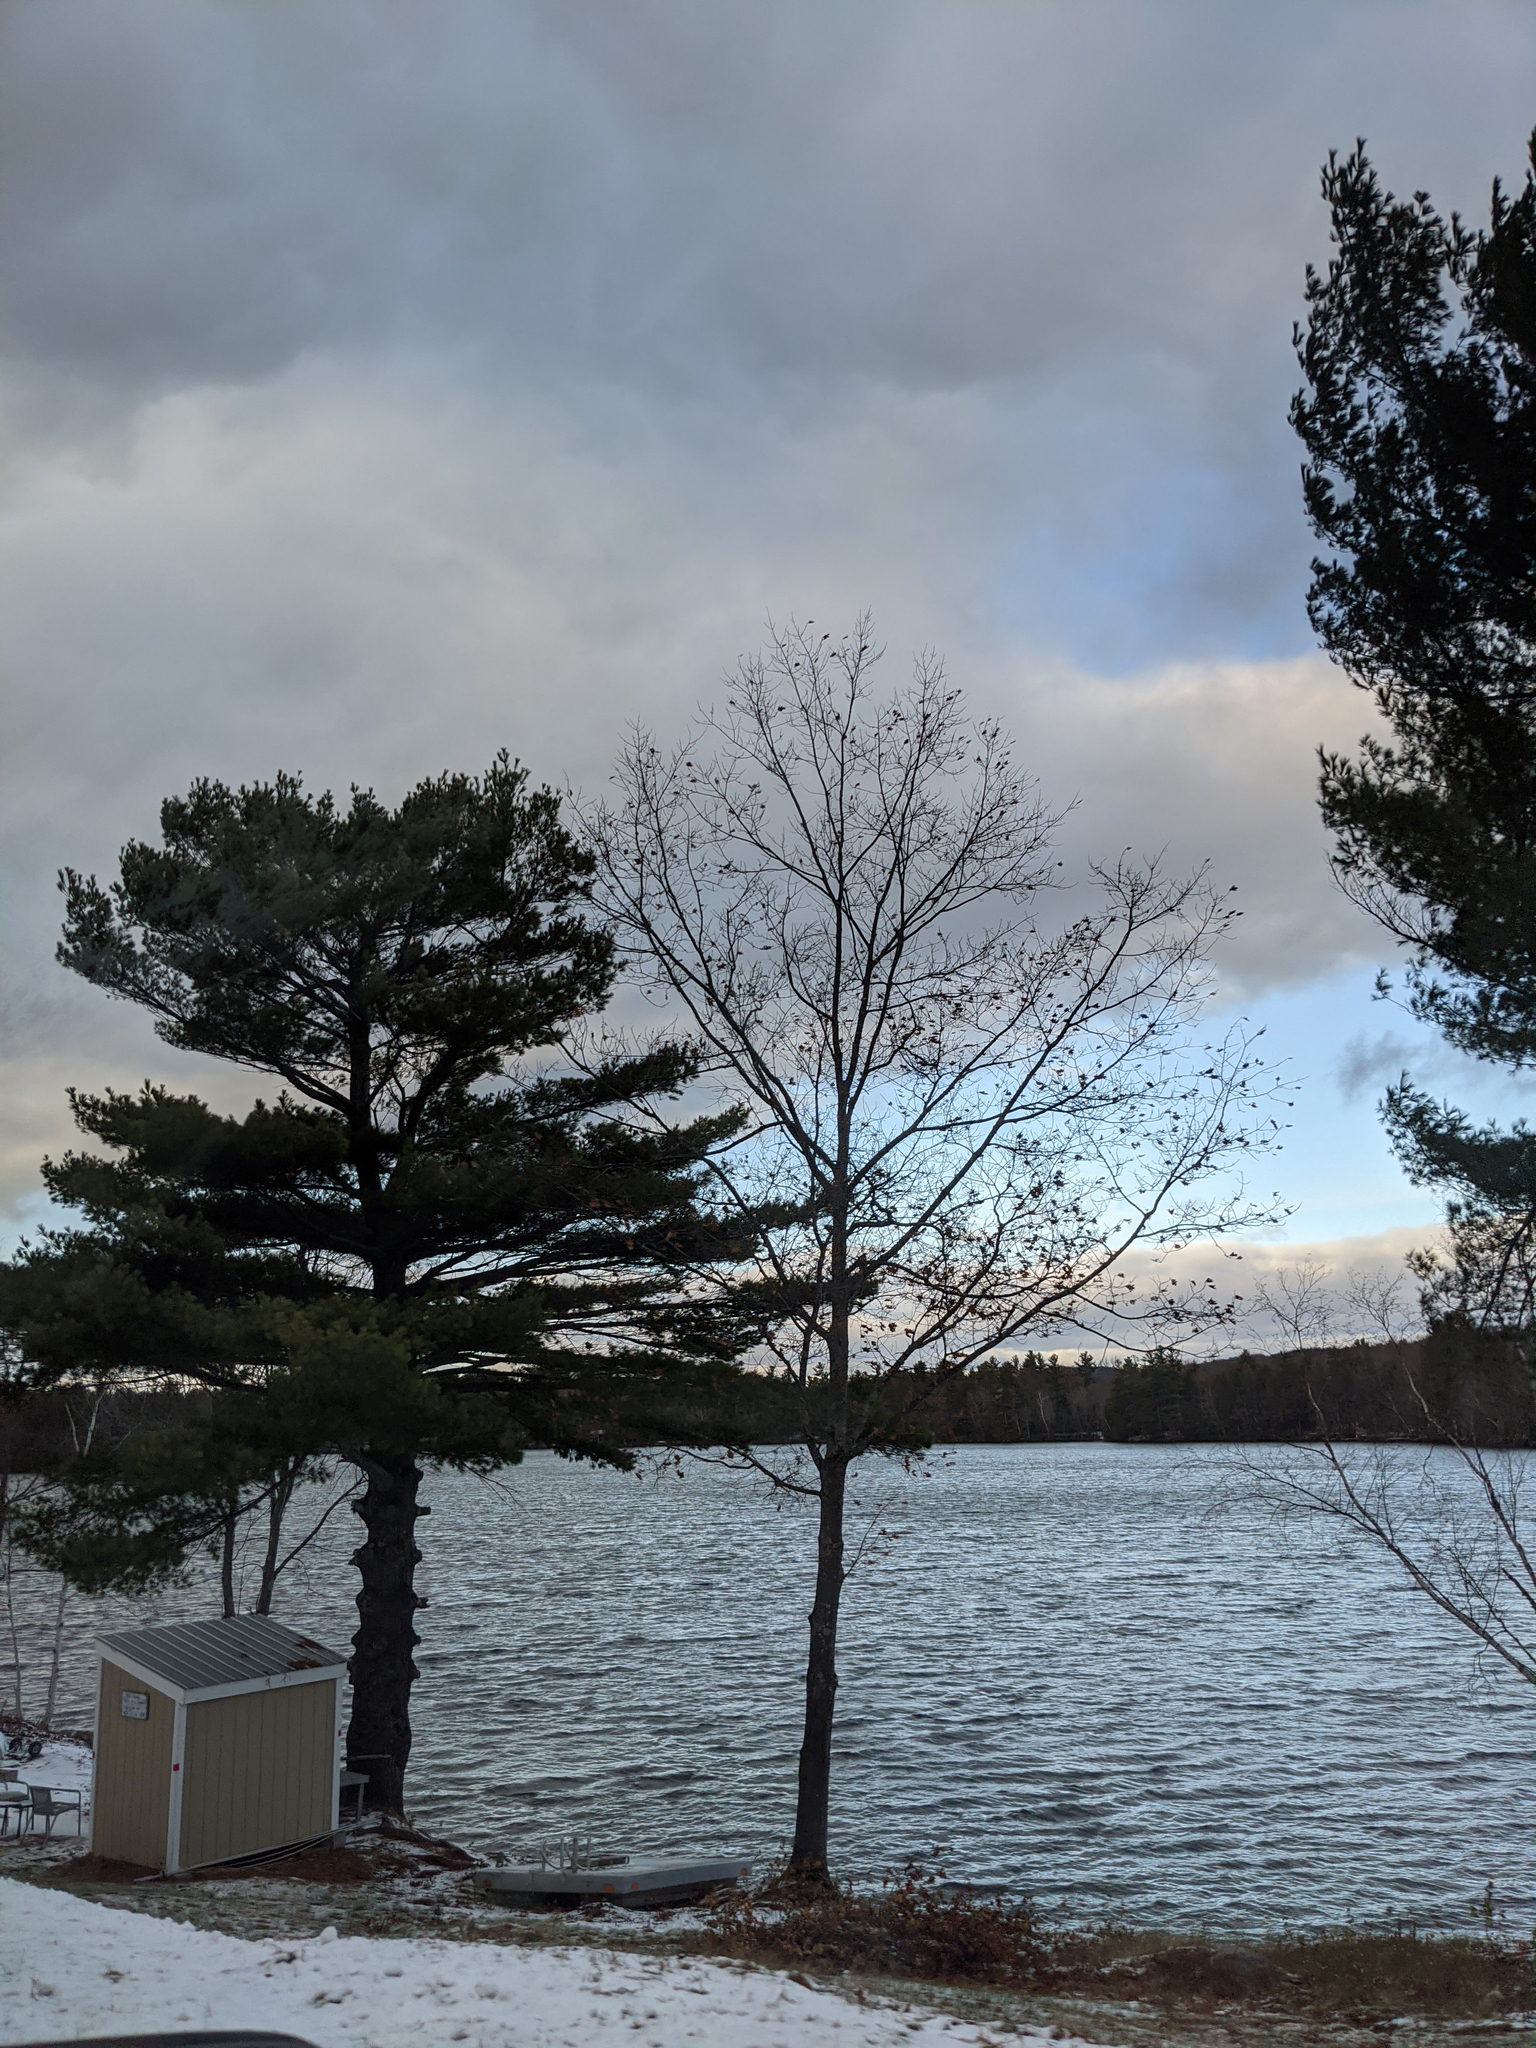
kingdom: Plantae
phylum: Tracheophyta
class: Pinopsida
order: Pinales
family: Pinaceae
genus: Pinus
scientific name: Pinus strobus
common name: Weymouth pine
